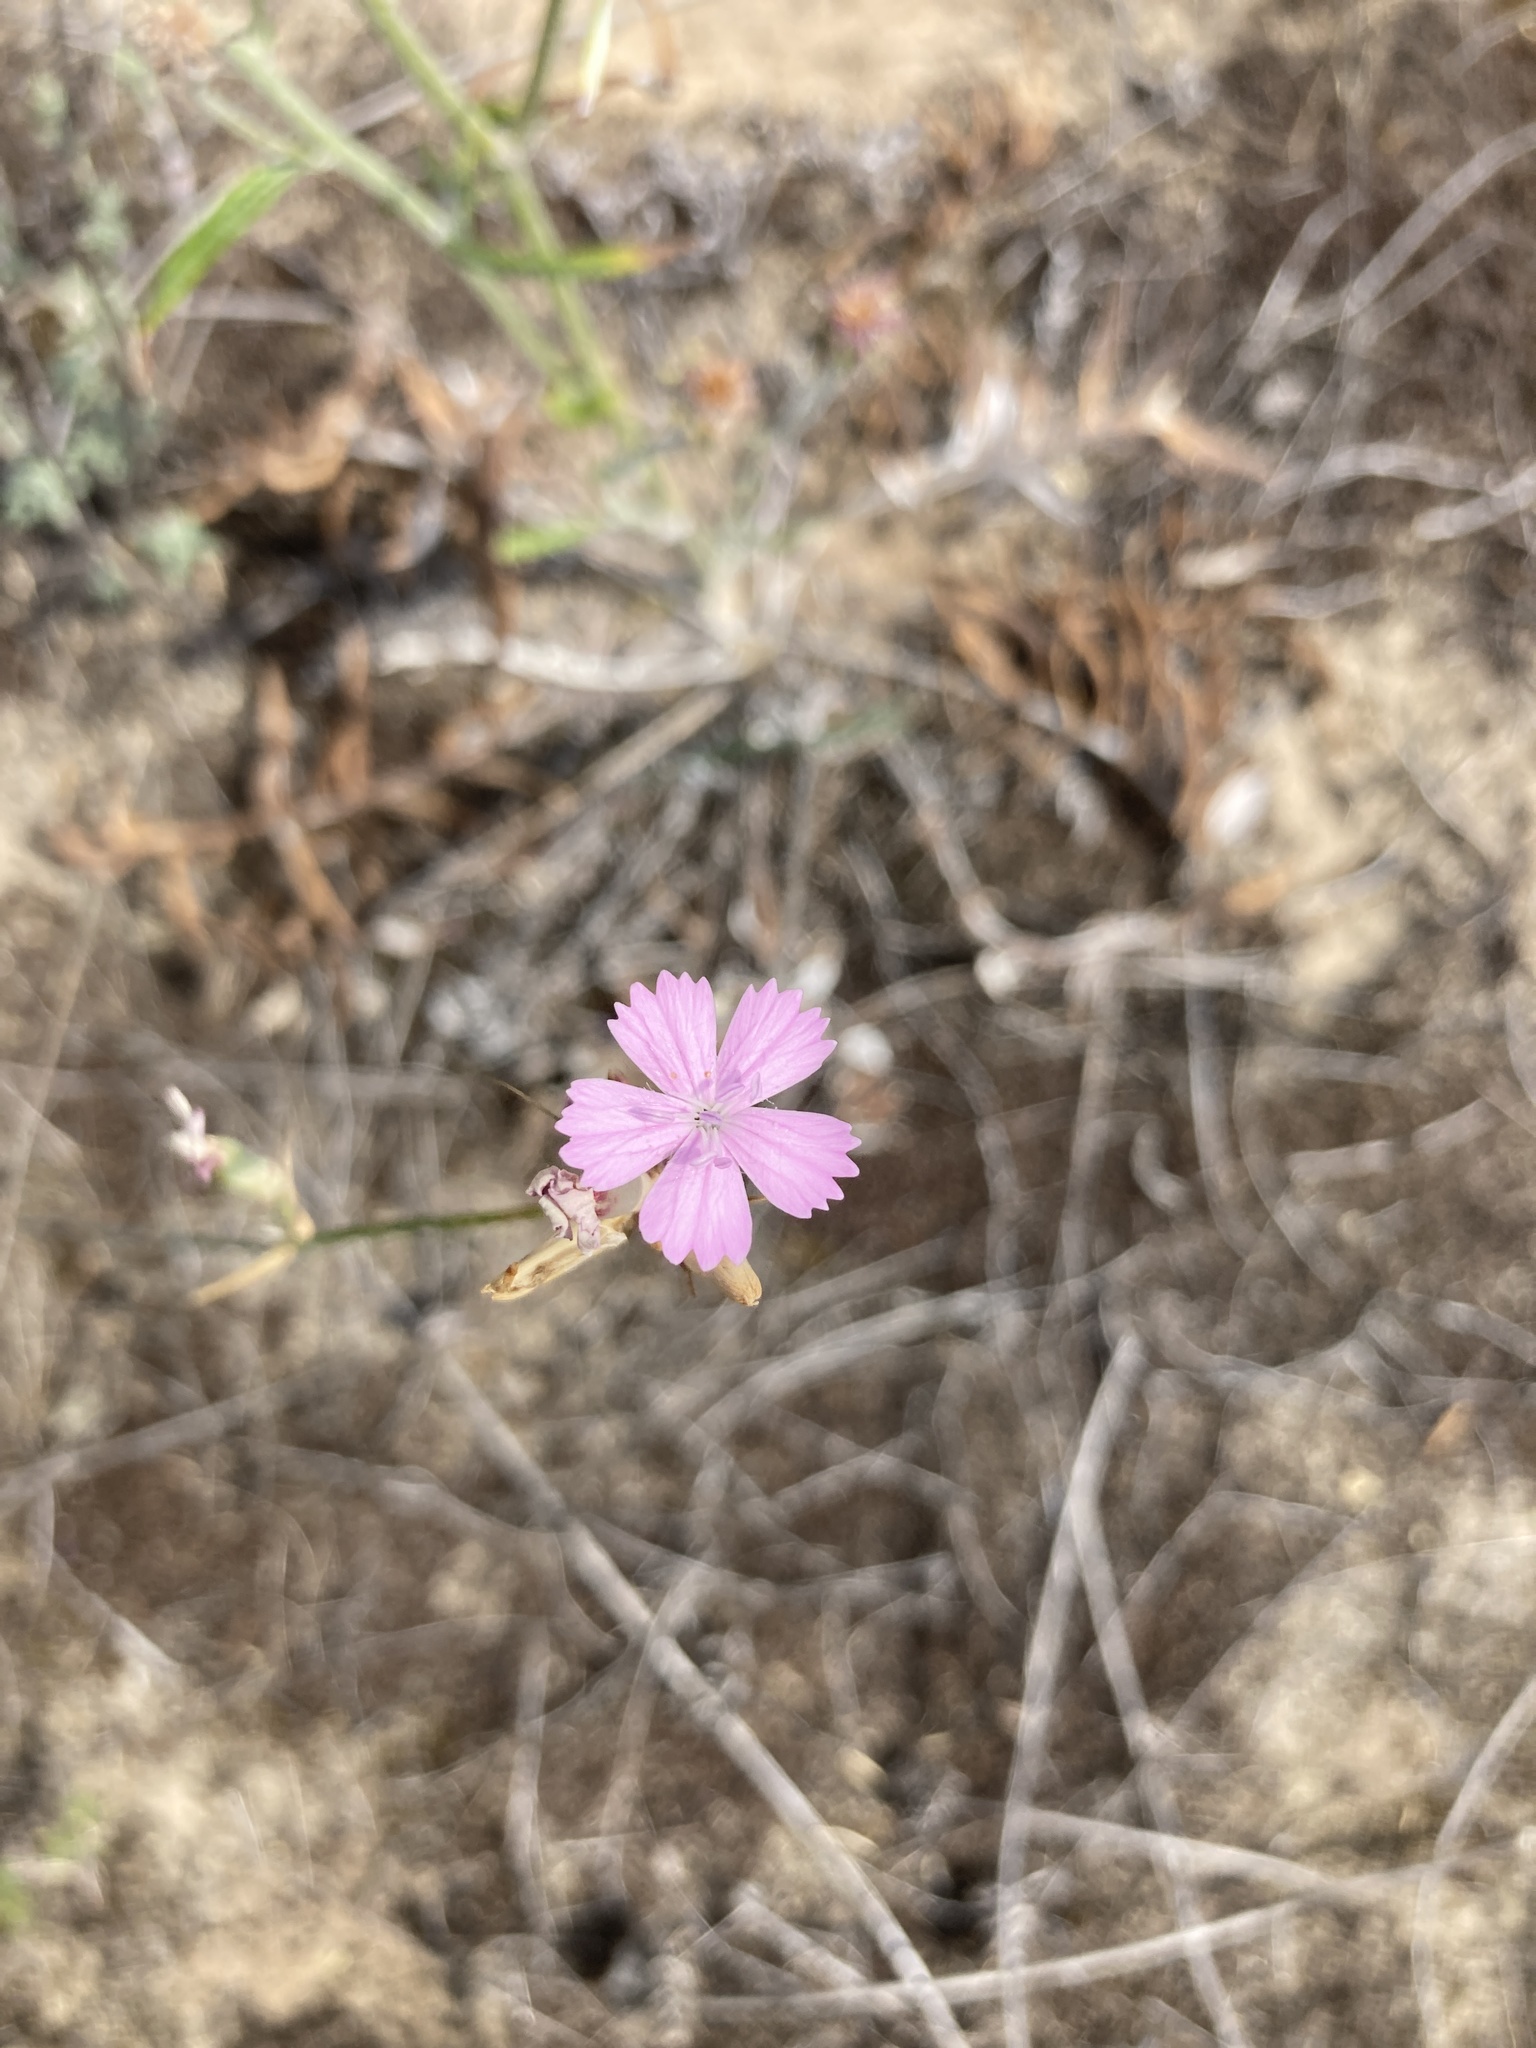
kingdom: Plantae
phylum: Tracheophyta
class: Magnoliopsida
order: Caryophyllales
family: Caryophyllaceae
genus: Dianthus
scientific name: Dianthus polymorphus
